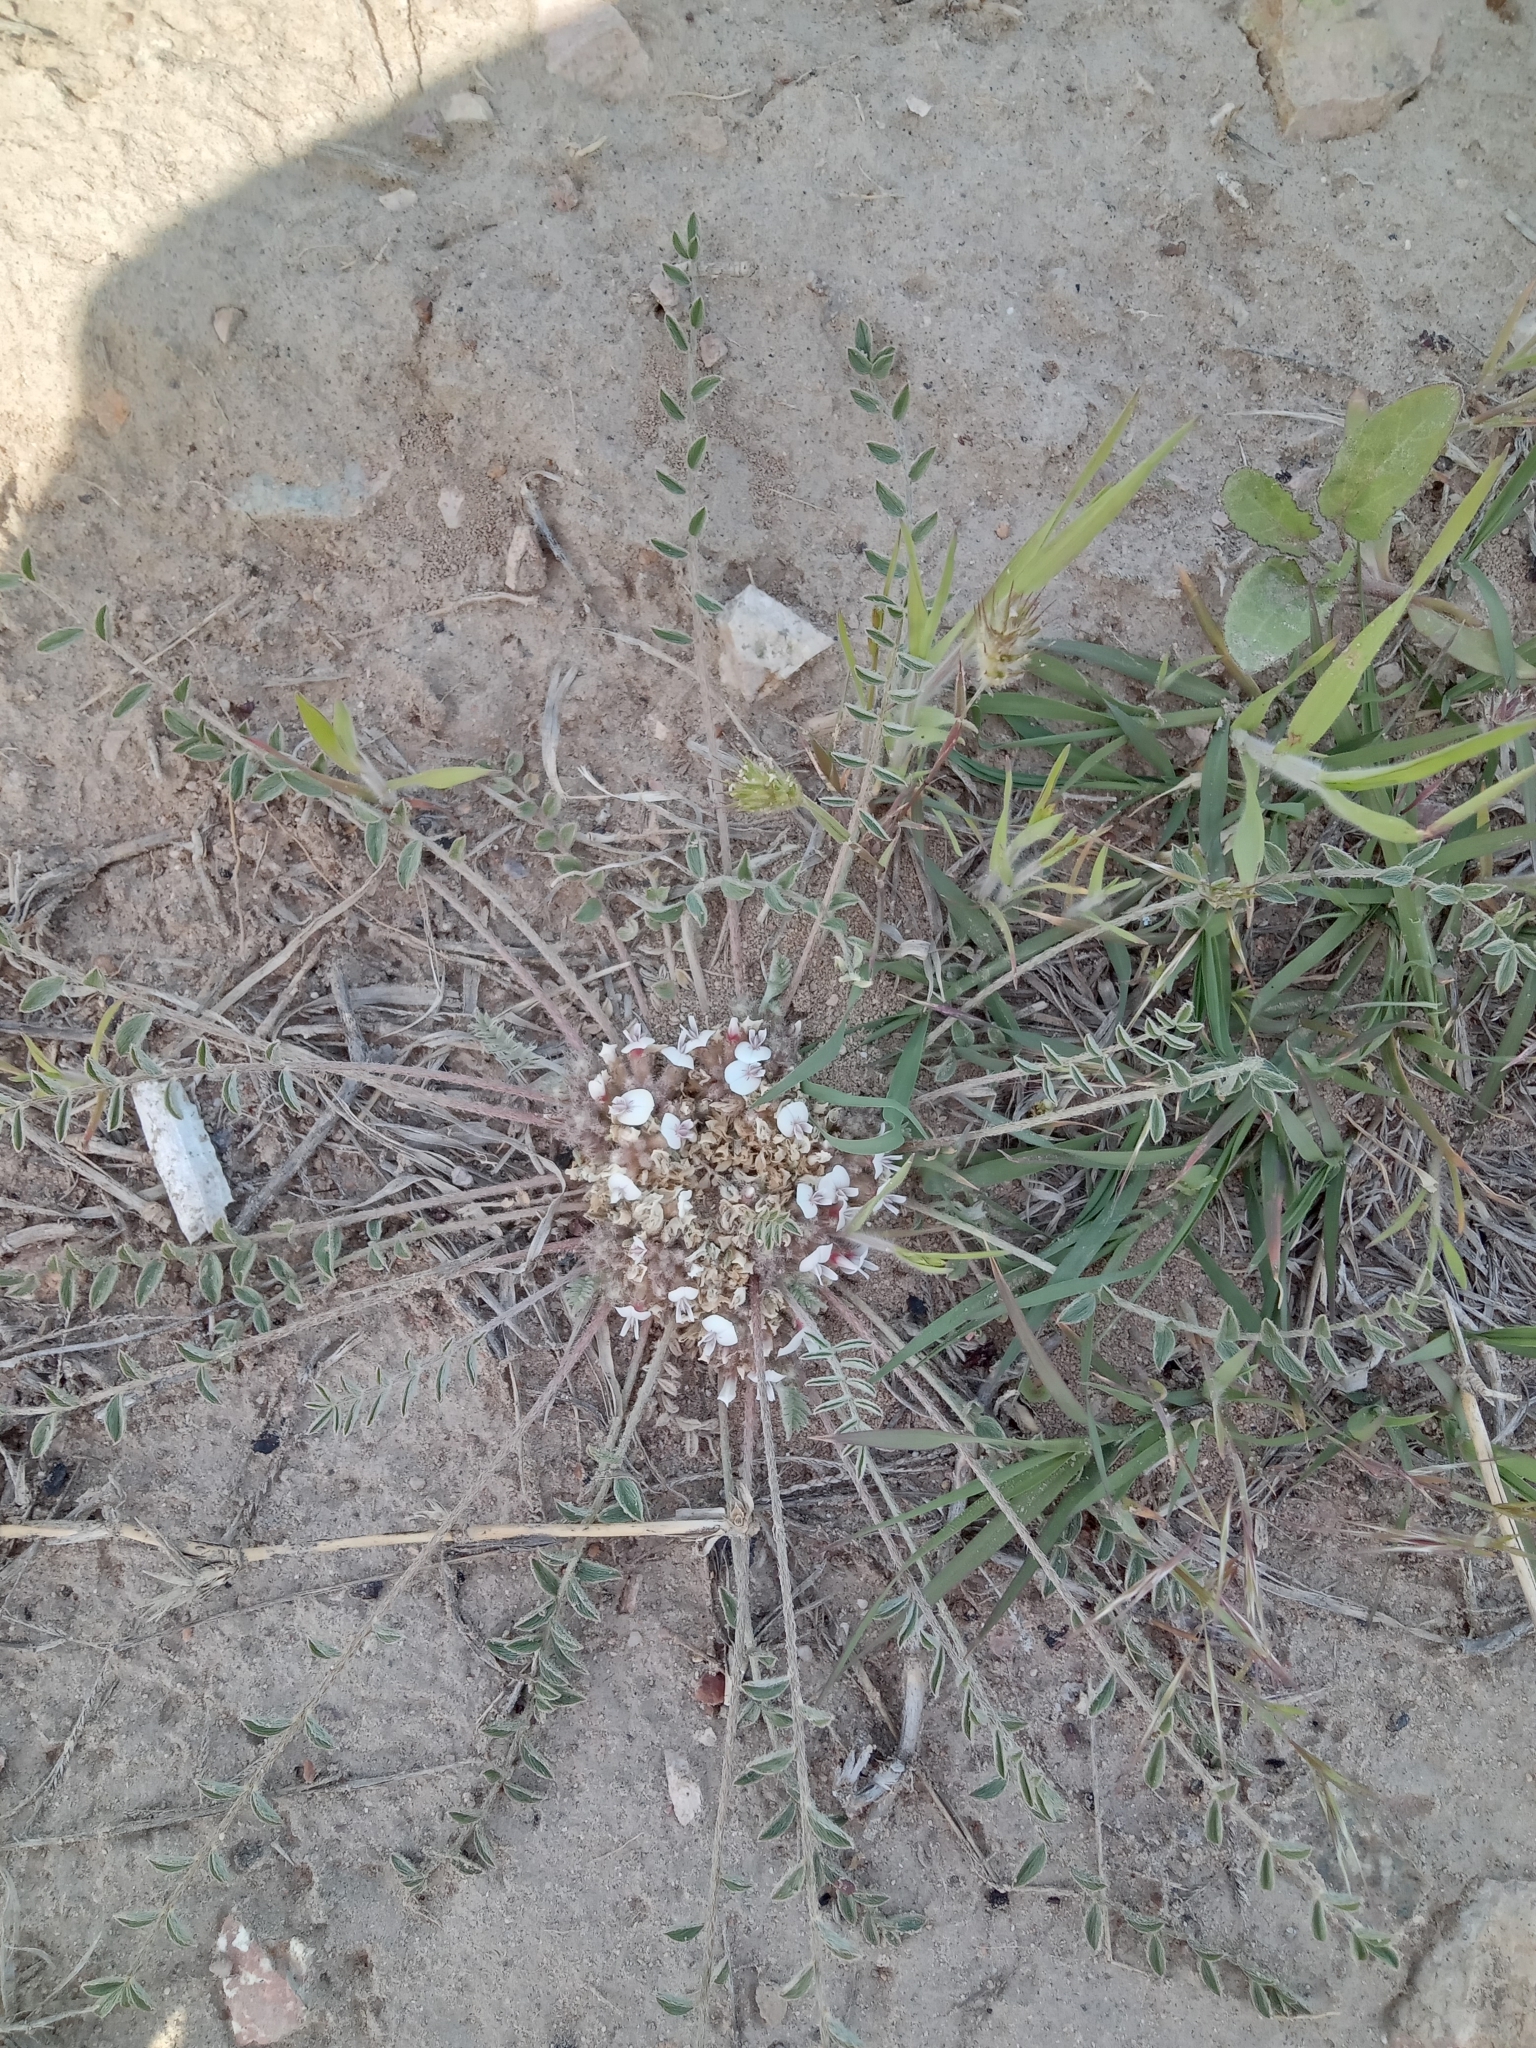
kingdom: Plantae
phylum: Tracheophyta
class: Magnoliopsida
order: Fabales
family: Fabaceae
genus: Astragalus
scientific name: Astragalus scabrisetus
